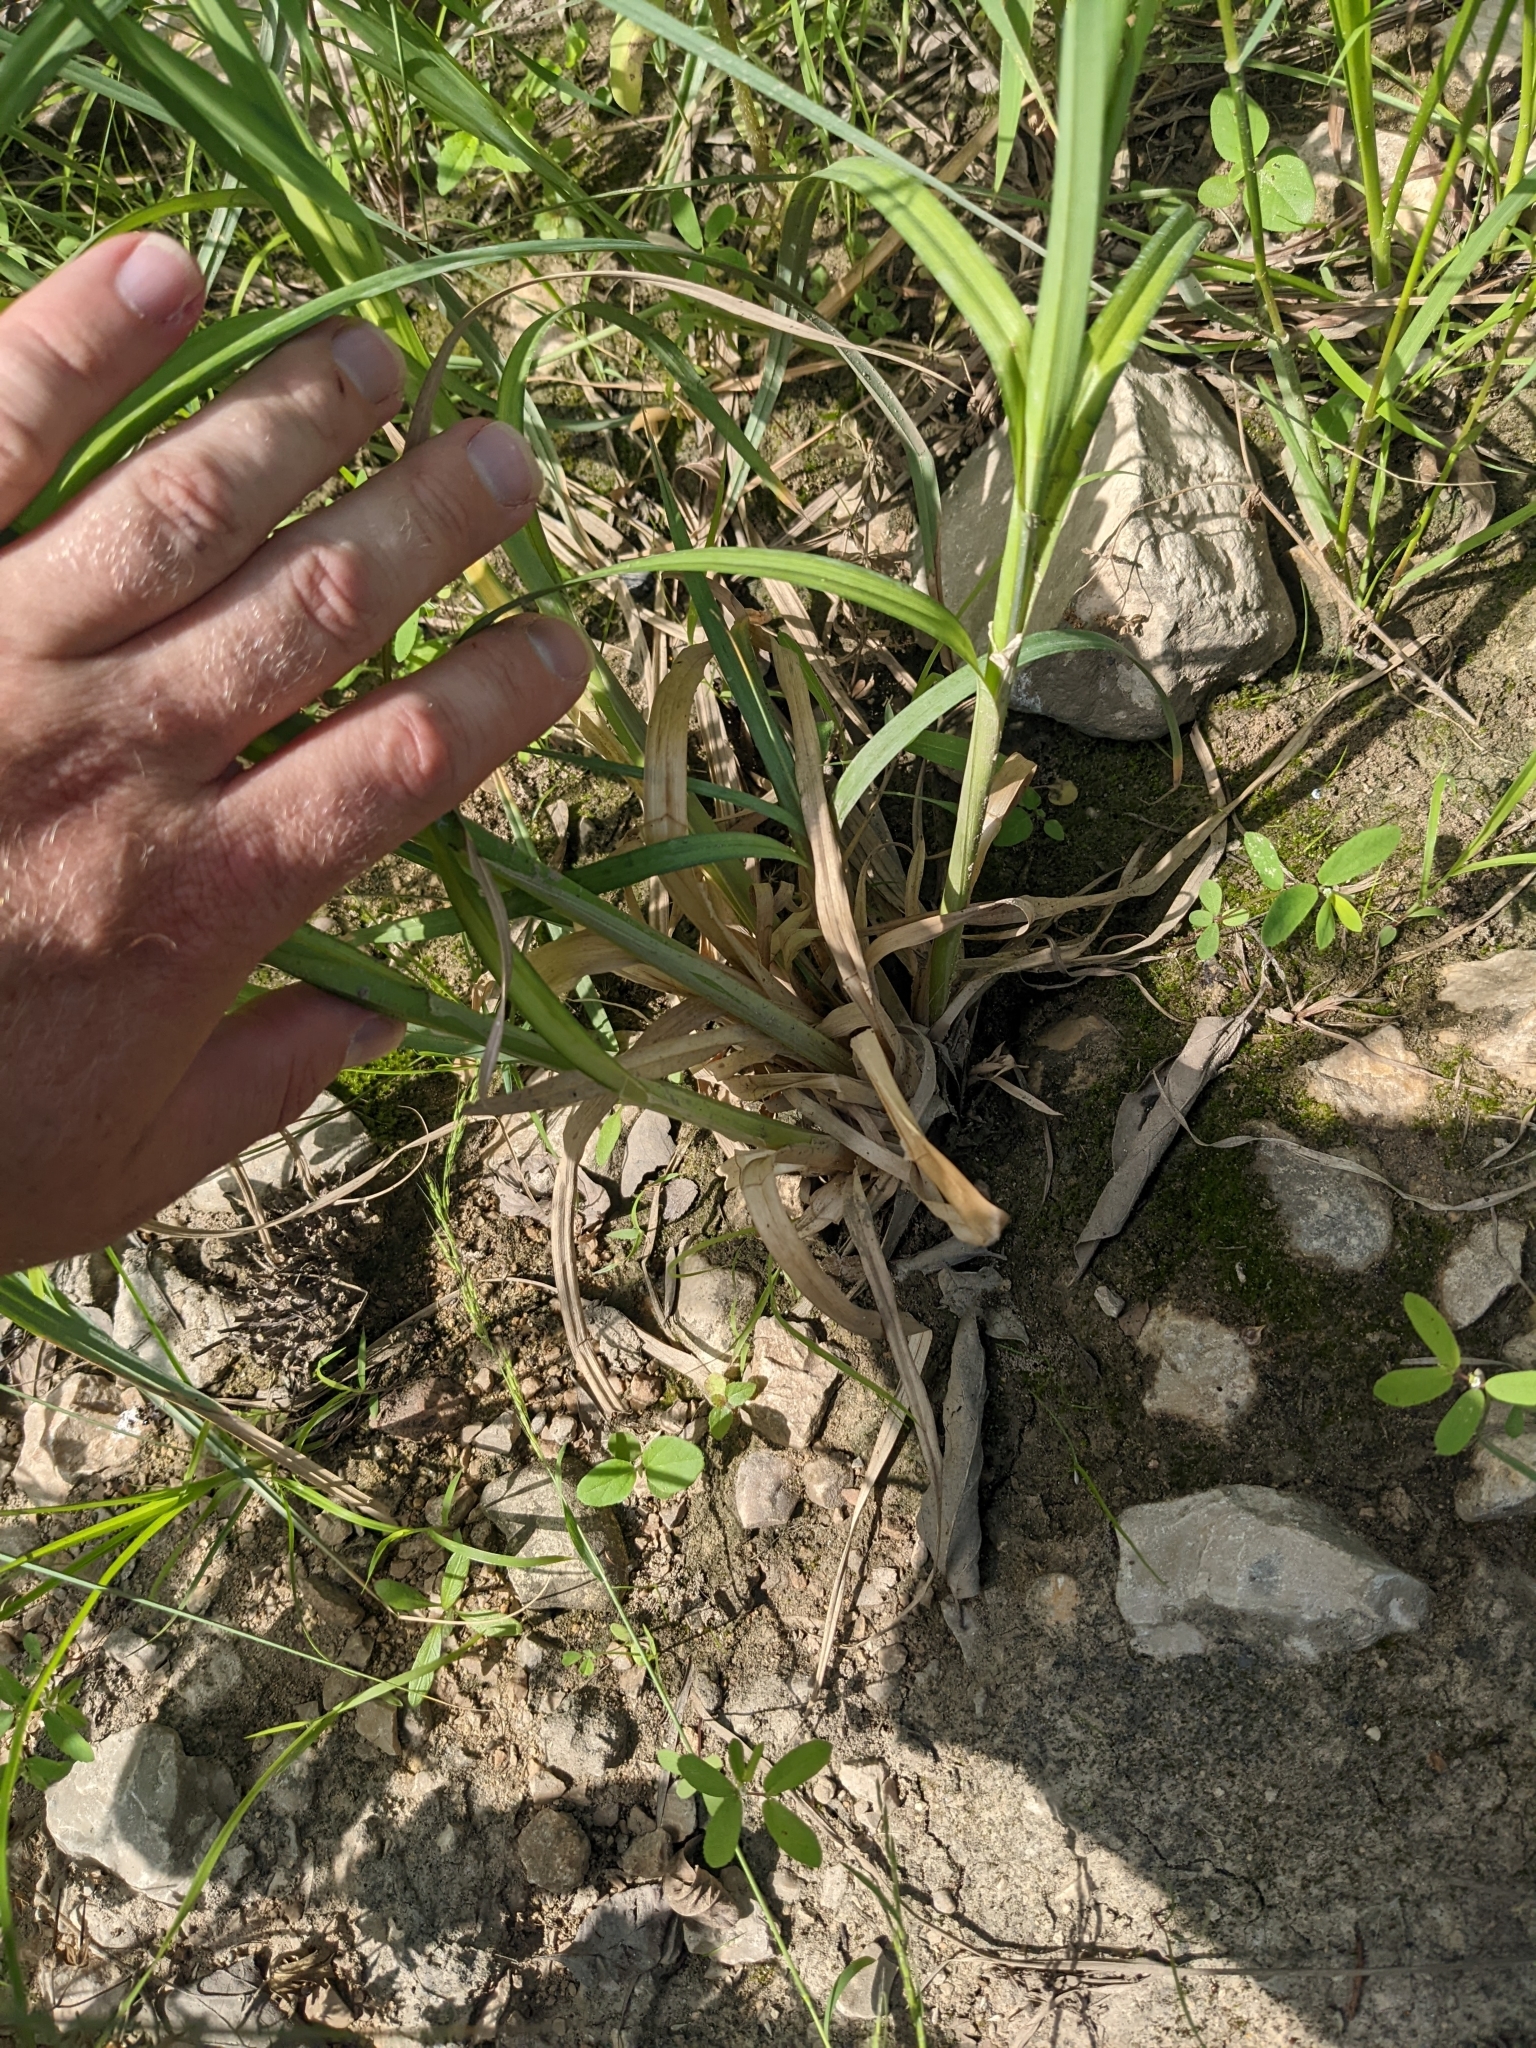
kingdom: Plantae
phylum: Tracheophyta
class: Liliopsida
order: Poales
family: Cyperaceae
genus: Carex
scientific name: Carex crus-corvi
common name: Crow-spur sedge
